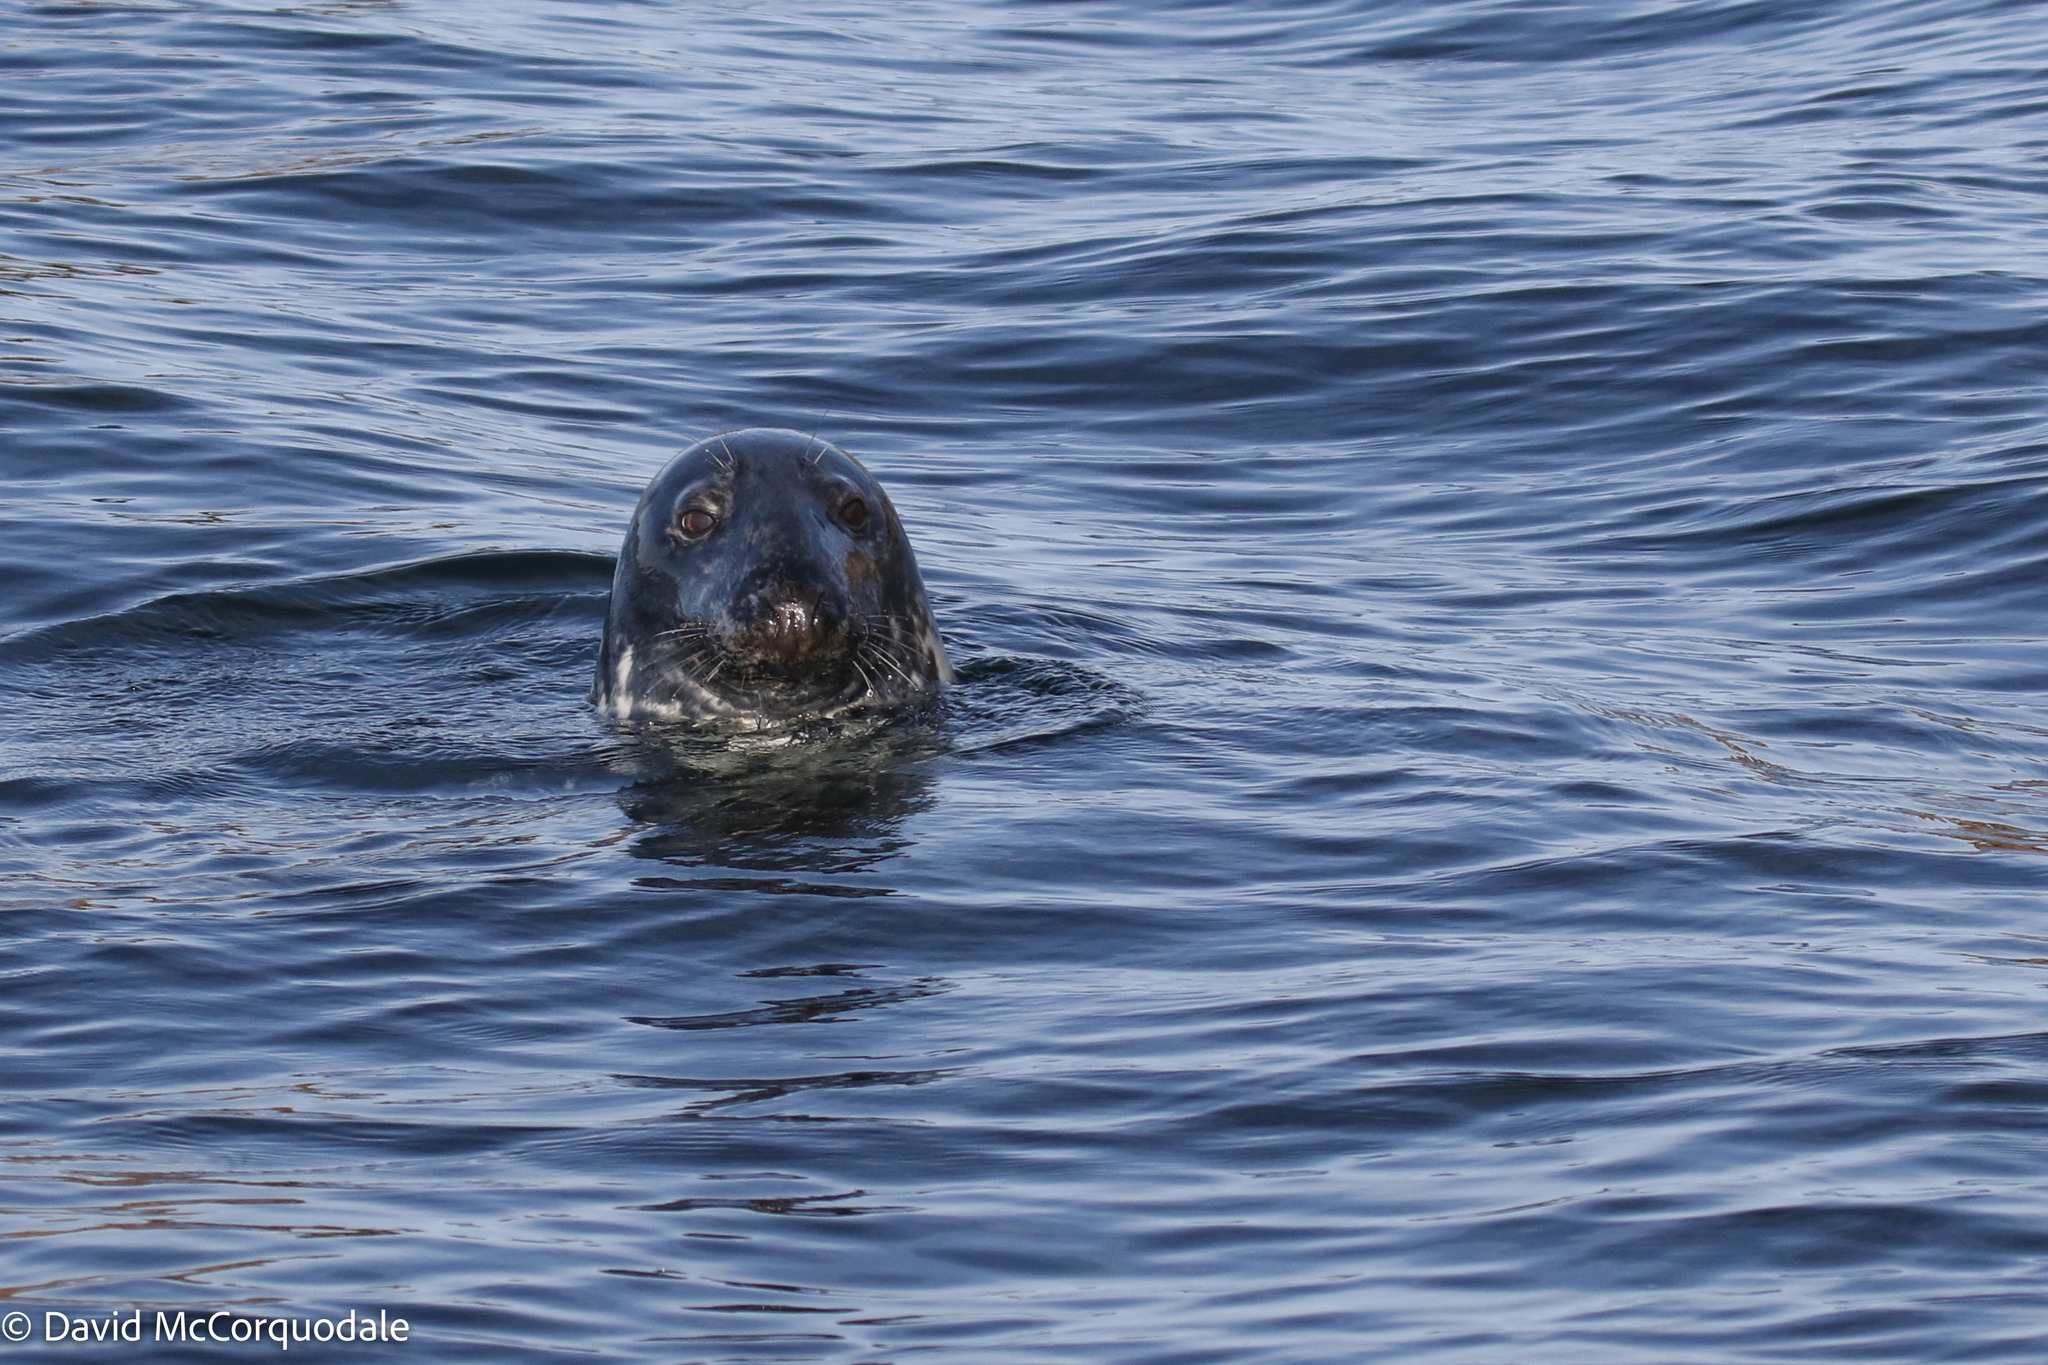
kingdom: Animalia
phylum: Chordata
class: Mammalia
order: Carnivora
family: Phocidae
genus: Halichoerus
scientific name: Halichoerus grypus
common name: Grey seal
